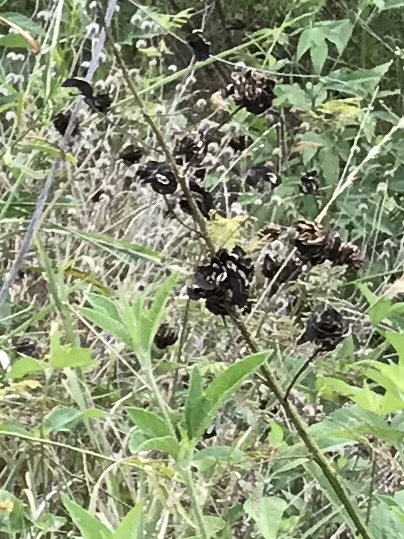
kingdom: Plantae
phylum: Tracheophyta
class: Magnoliopsida
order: Fabales
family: Fabaceae
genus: Desmanthus
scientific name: Desmanthus illinoensis
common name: Illinois bundle-flower
